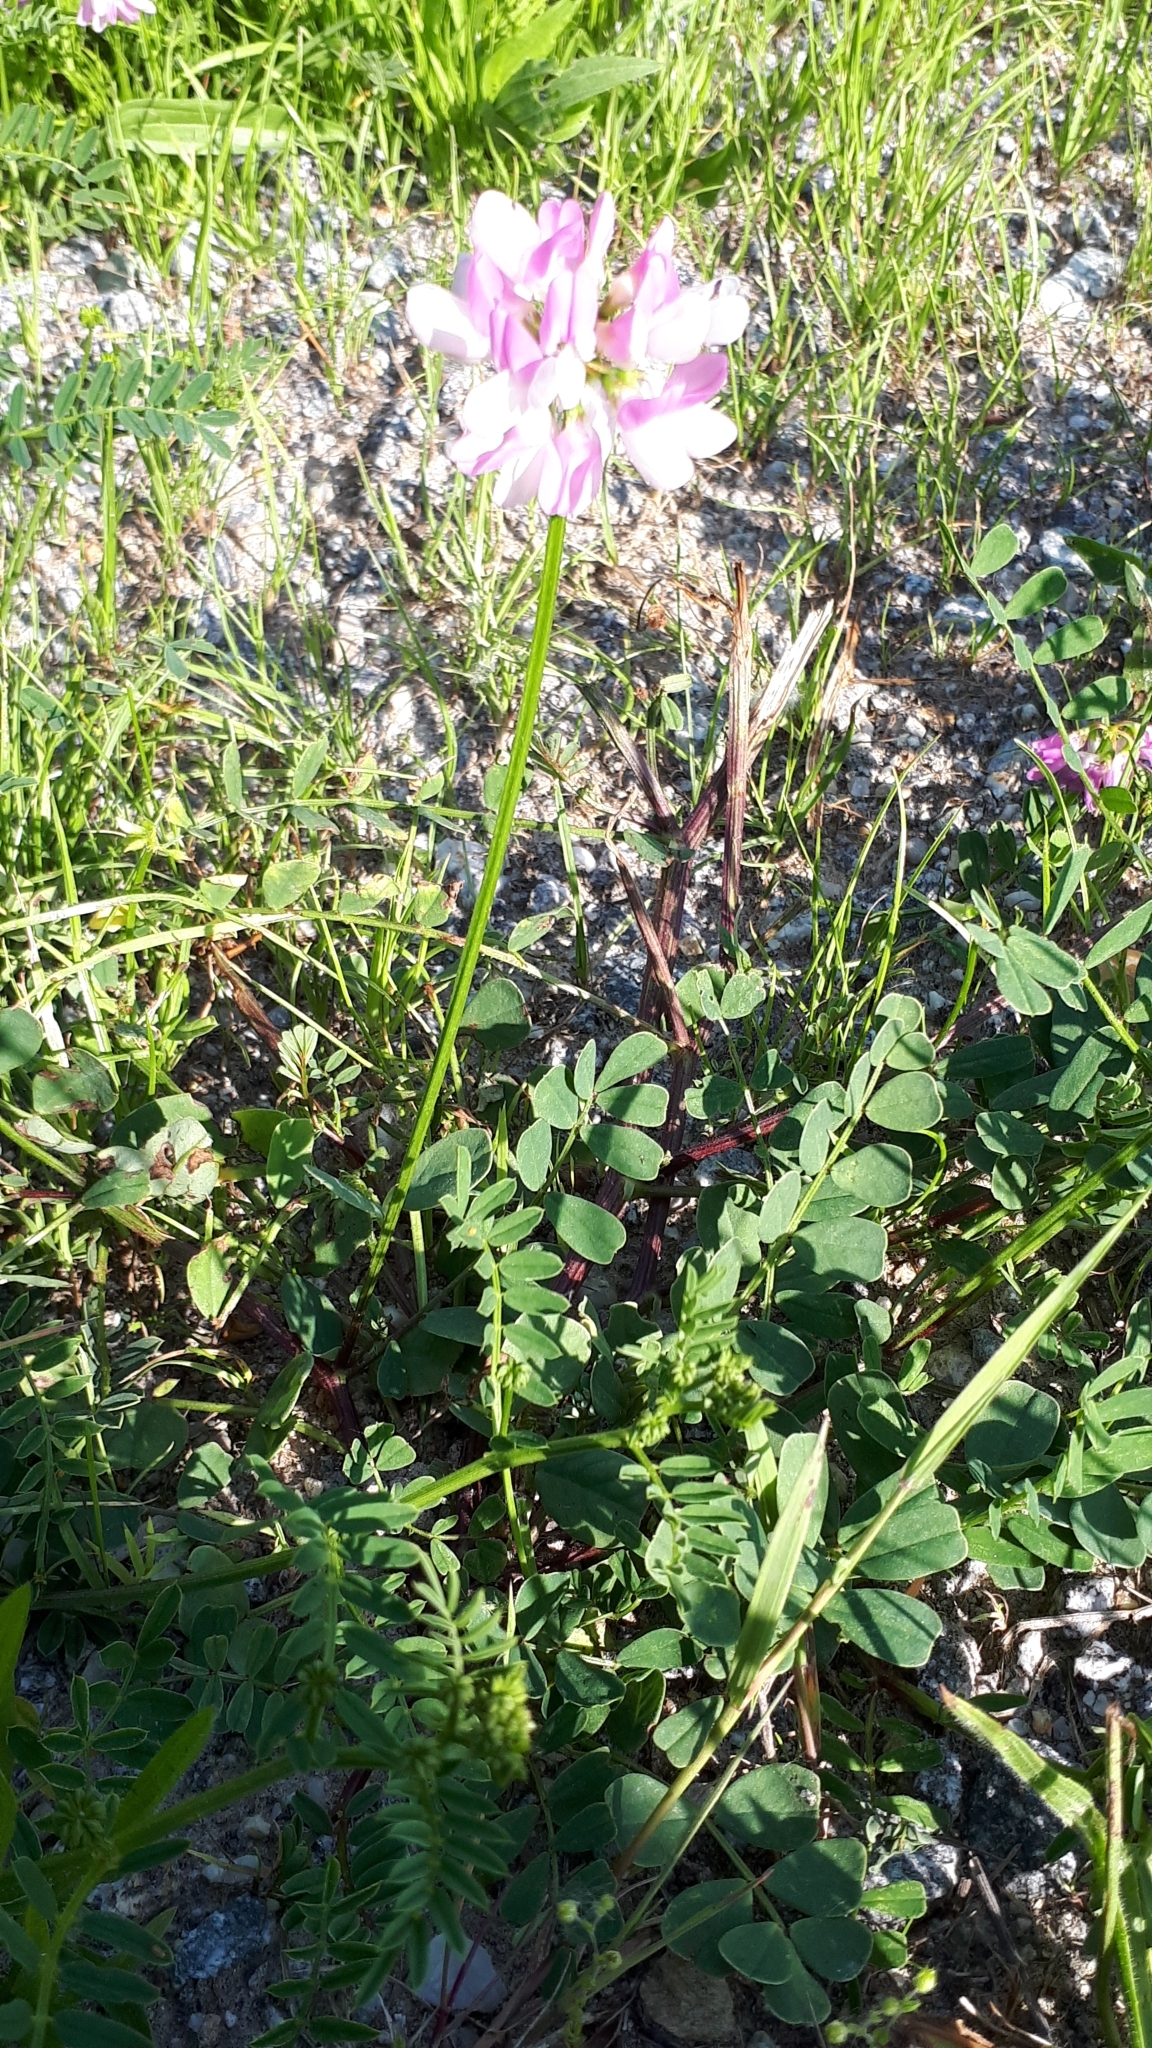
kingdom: Plantae
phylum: Tracheophyta
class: Magnoliopsida
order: Fabales
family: Fabaceae
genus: Coronilla
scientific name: Coronilla varia
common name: Crownvetch
